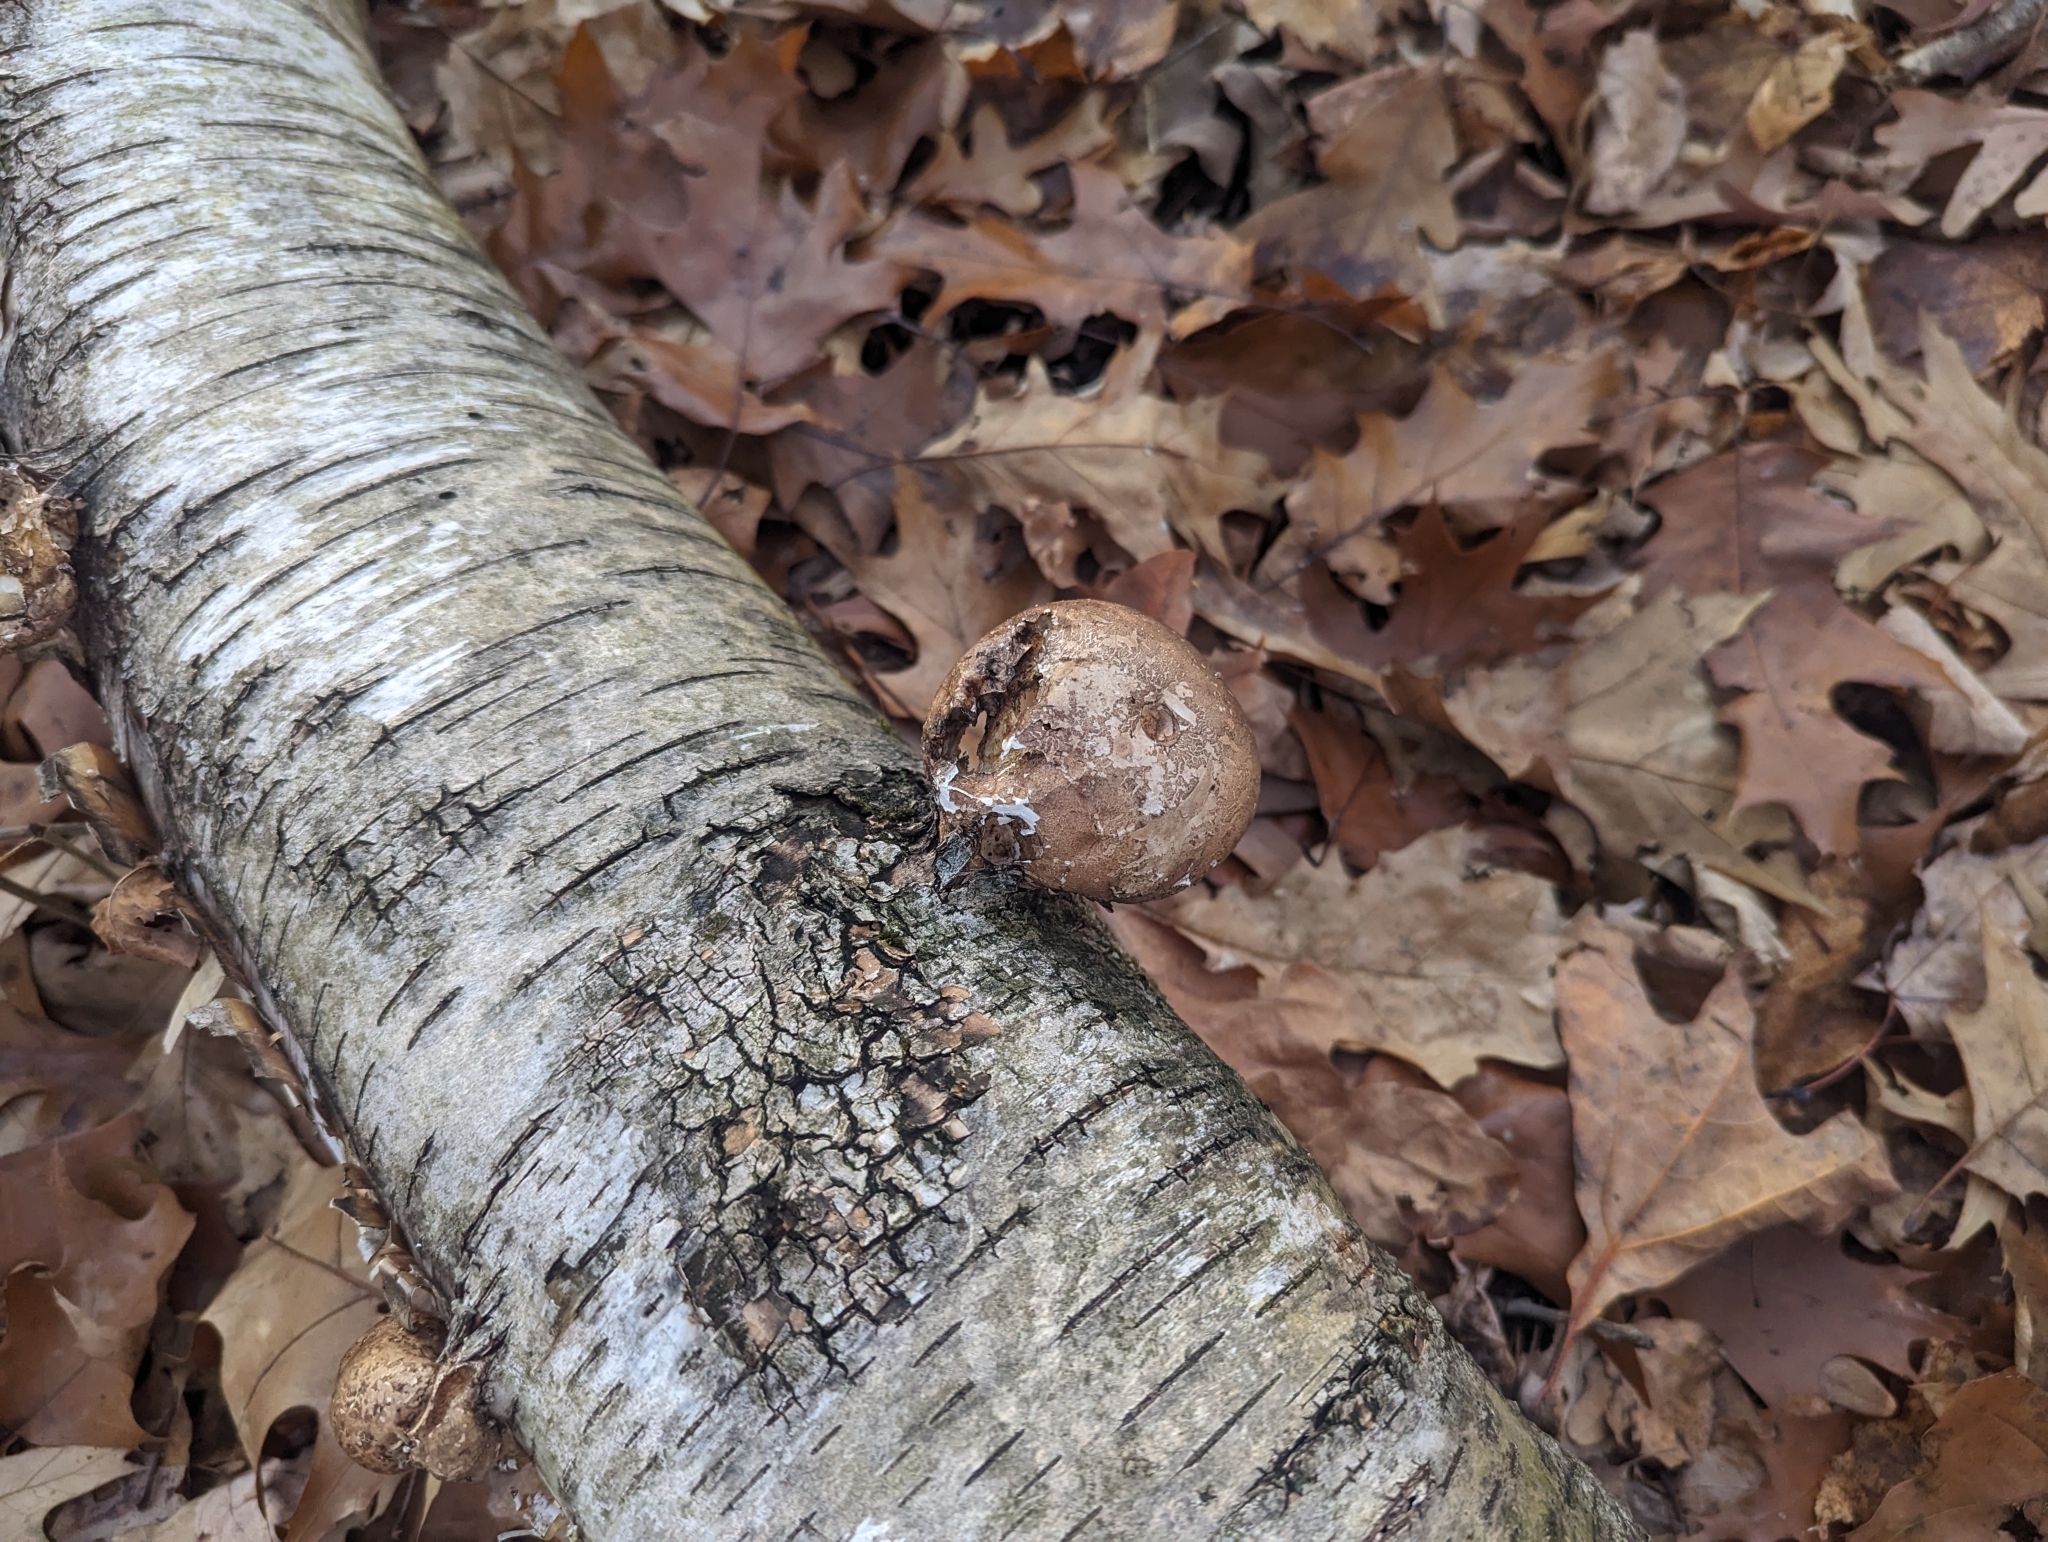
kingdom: Fungi
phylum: Basidiomycota
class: Agaricomycetes
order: Polyporales
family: Fomitopsidaceae
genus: Fomitopsis
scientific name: Fomitopsis betulina
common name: Birch polypore
